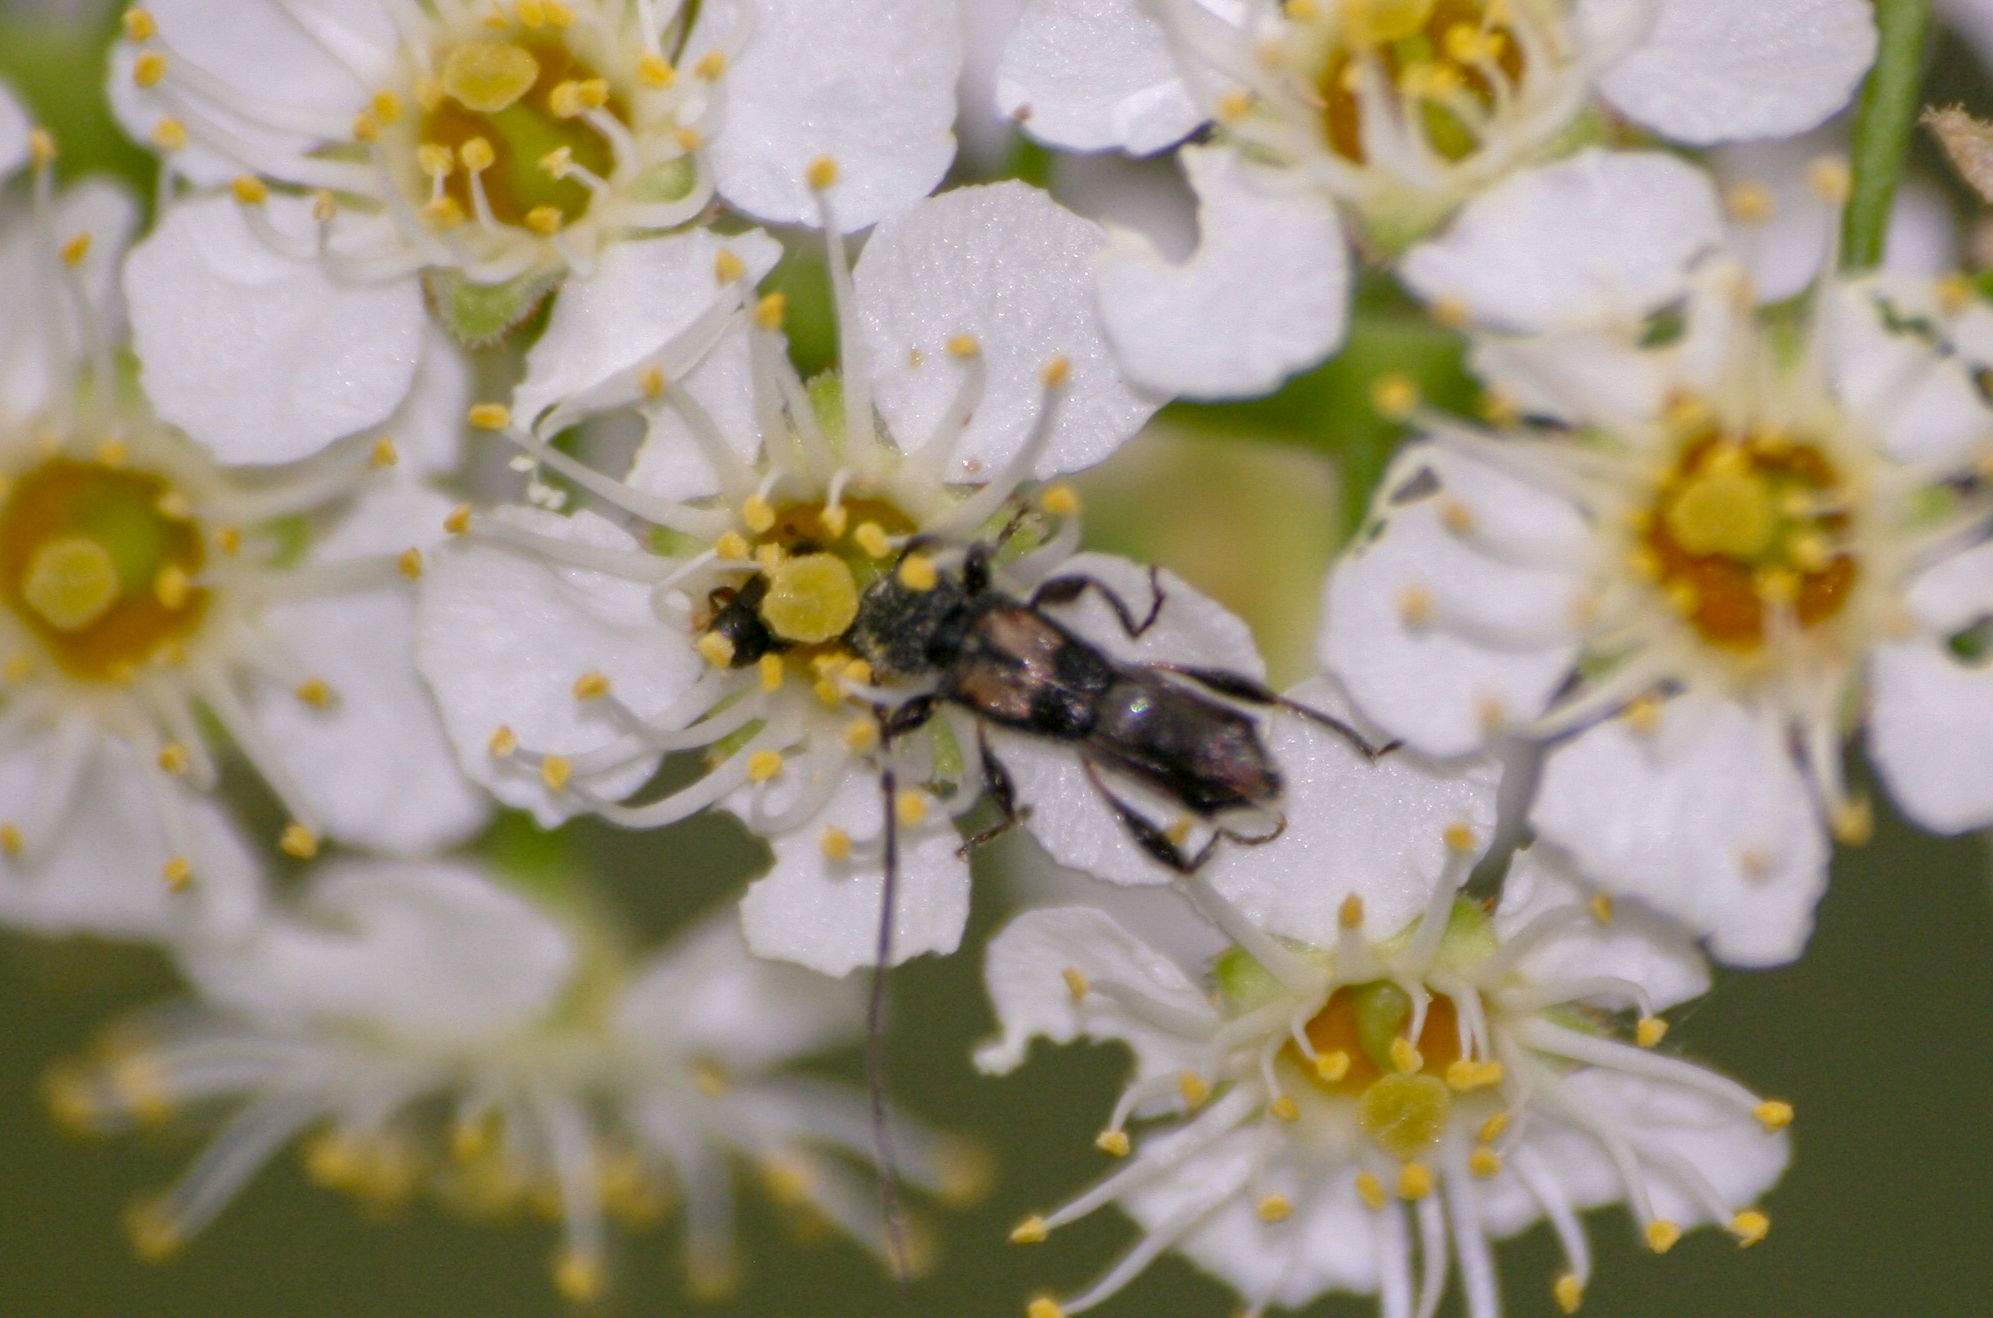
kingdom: Animalia
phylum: Arthropoda
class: Insecta
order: Coleoptera
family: Cerambycidae
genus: Molorchus
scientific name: Molorchus bimaculatus
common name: Bimaculate longhorn beetle
